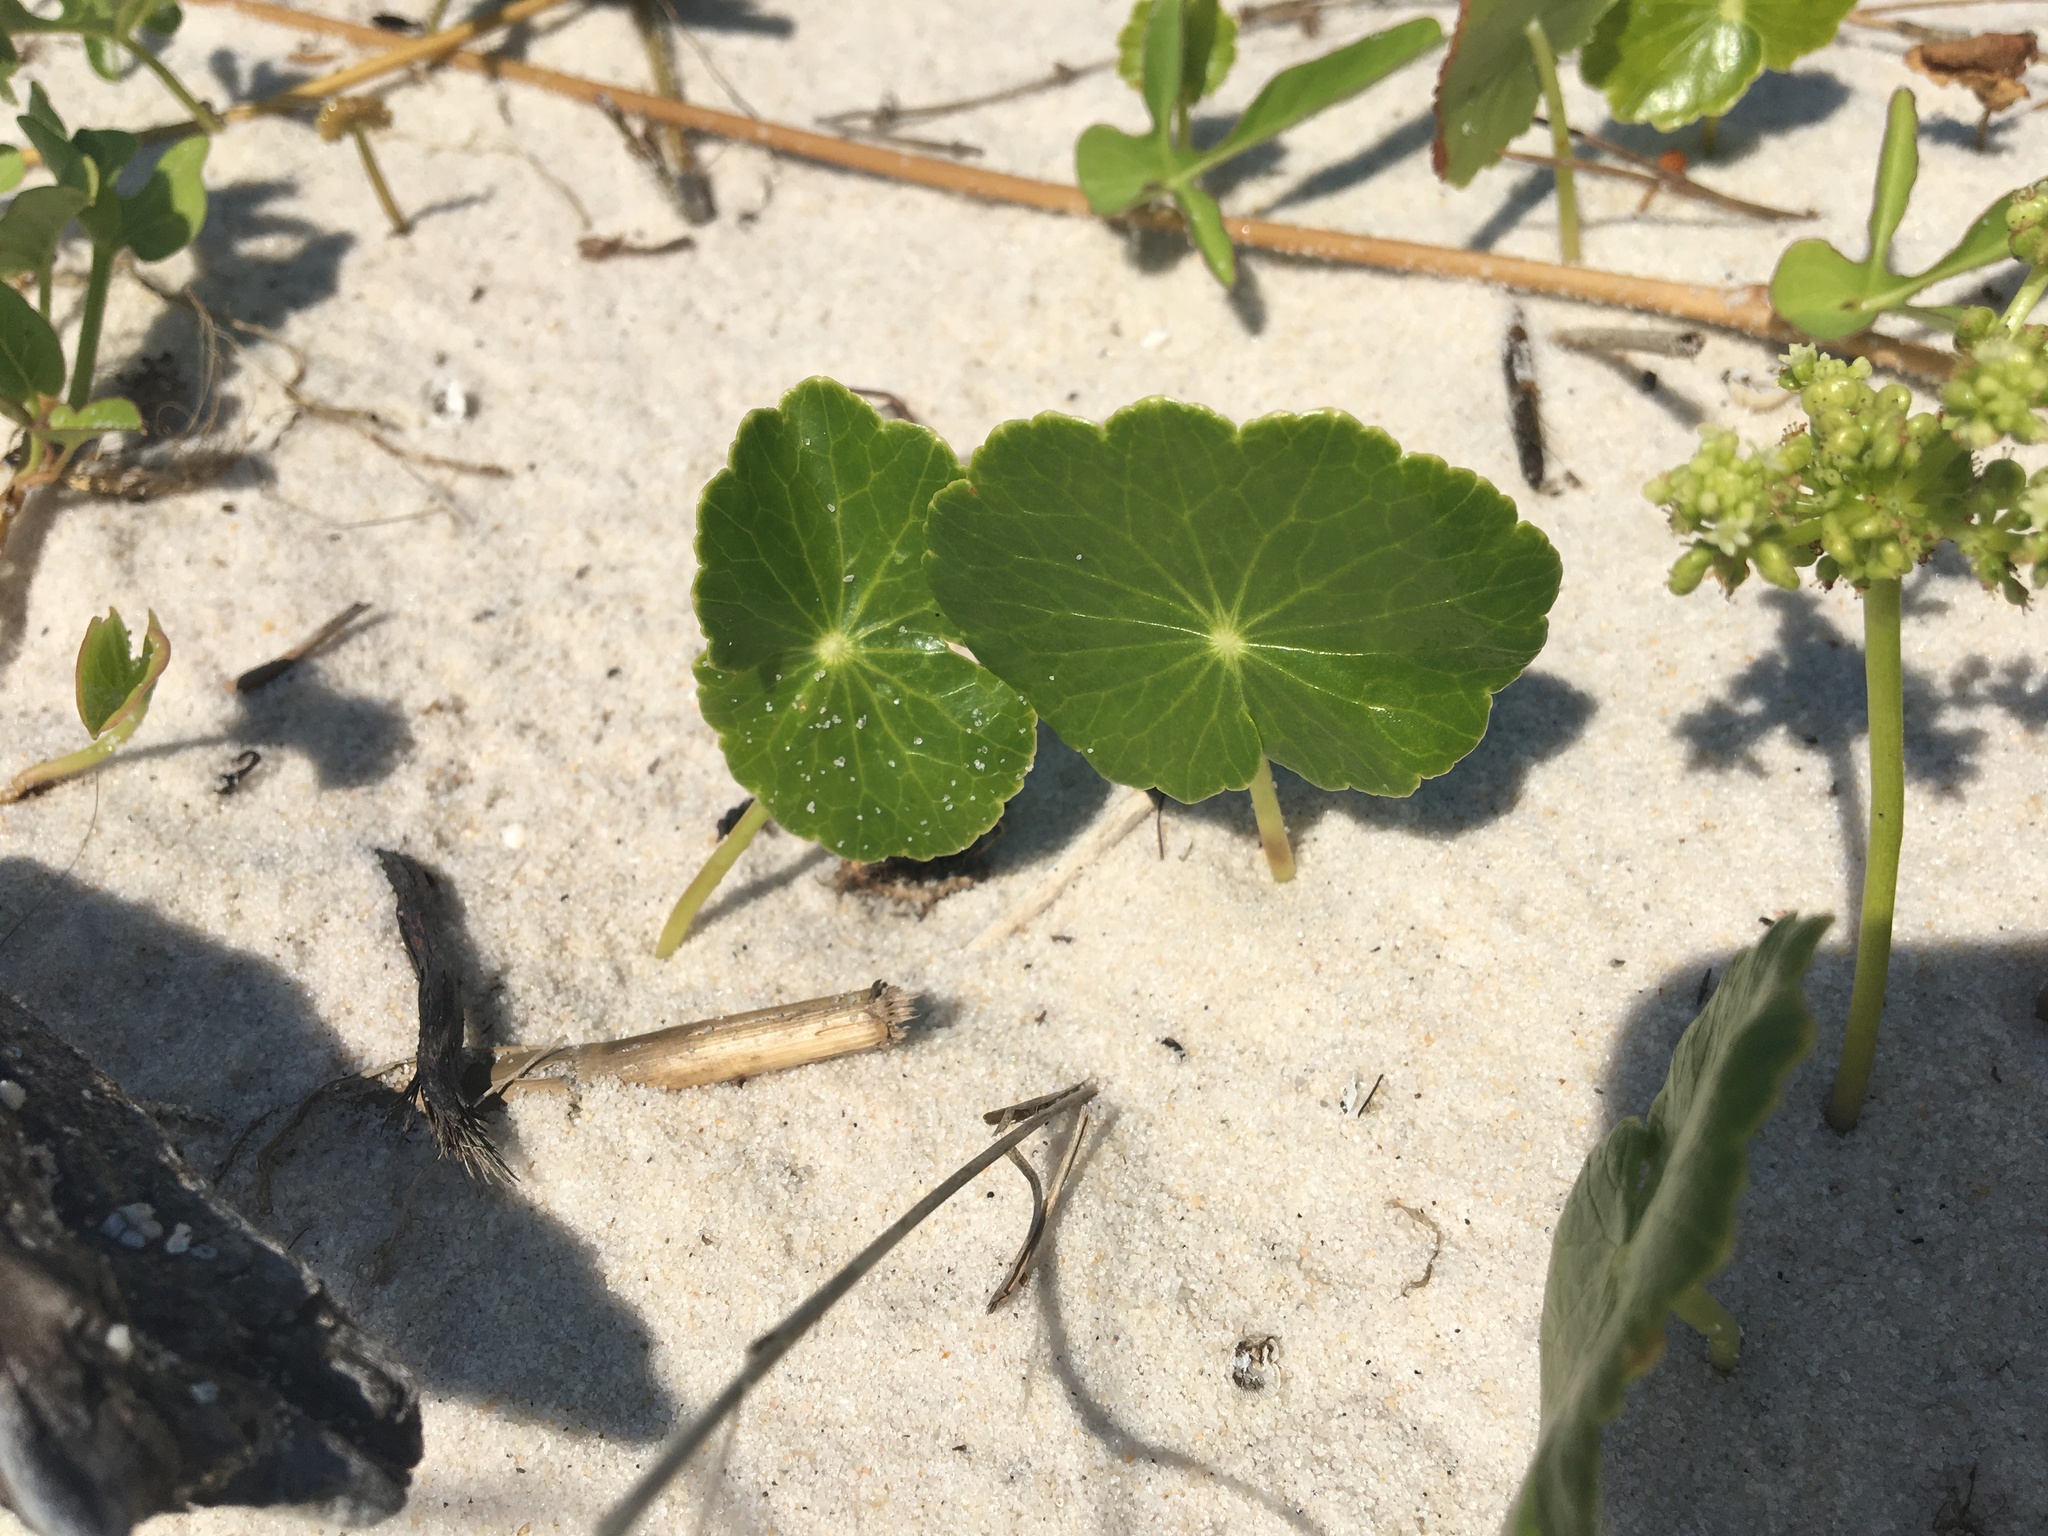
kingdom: Plantae
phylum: Tracheophyta
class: Magnoliopsida
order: Apiales
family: Araliaceae
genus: Hydrocotyle
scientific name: Hydrocotyle bonariensis
